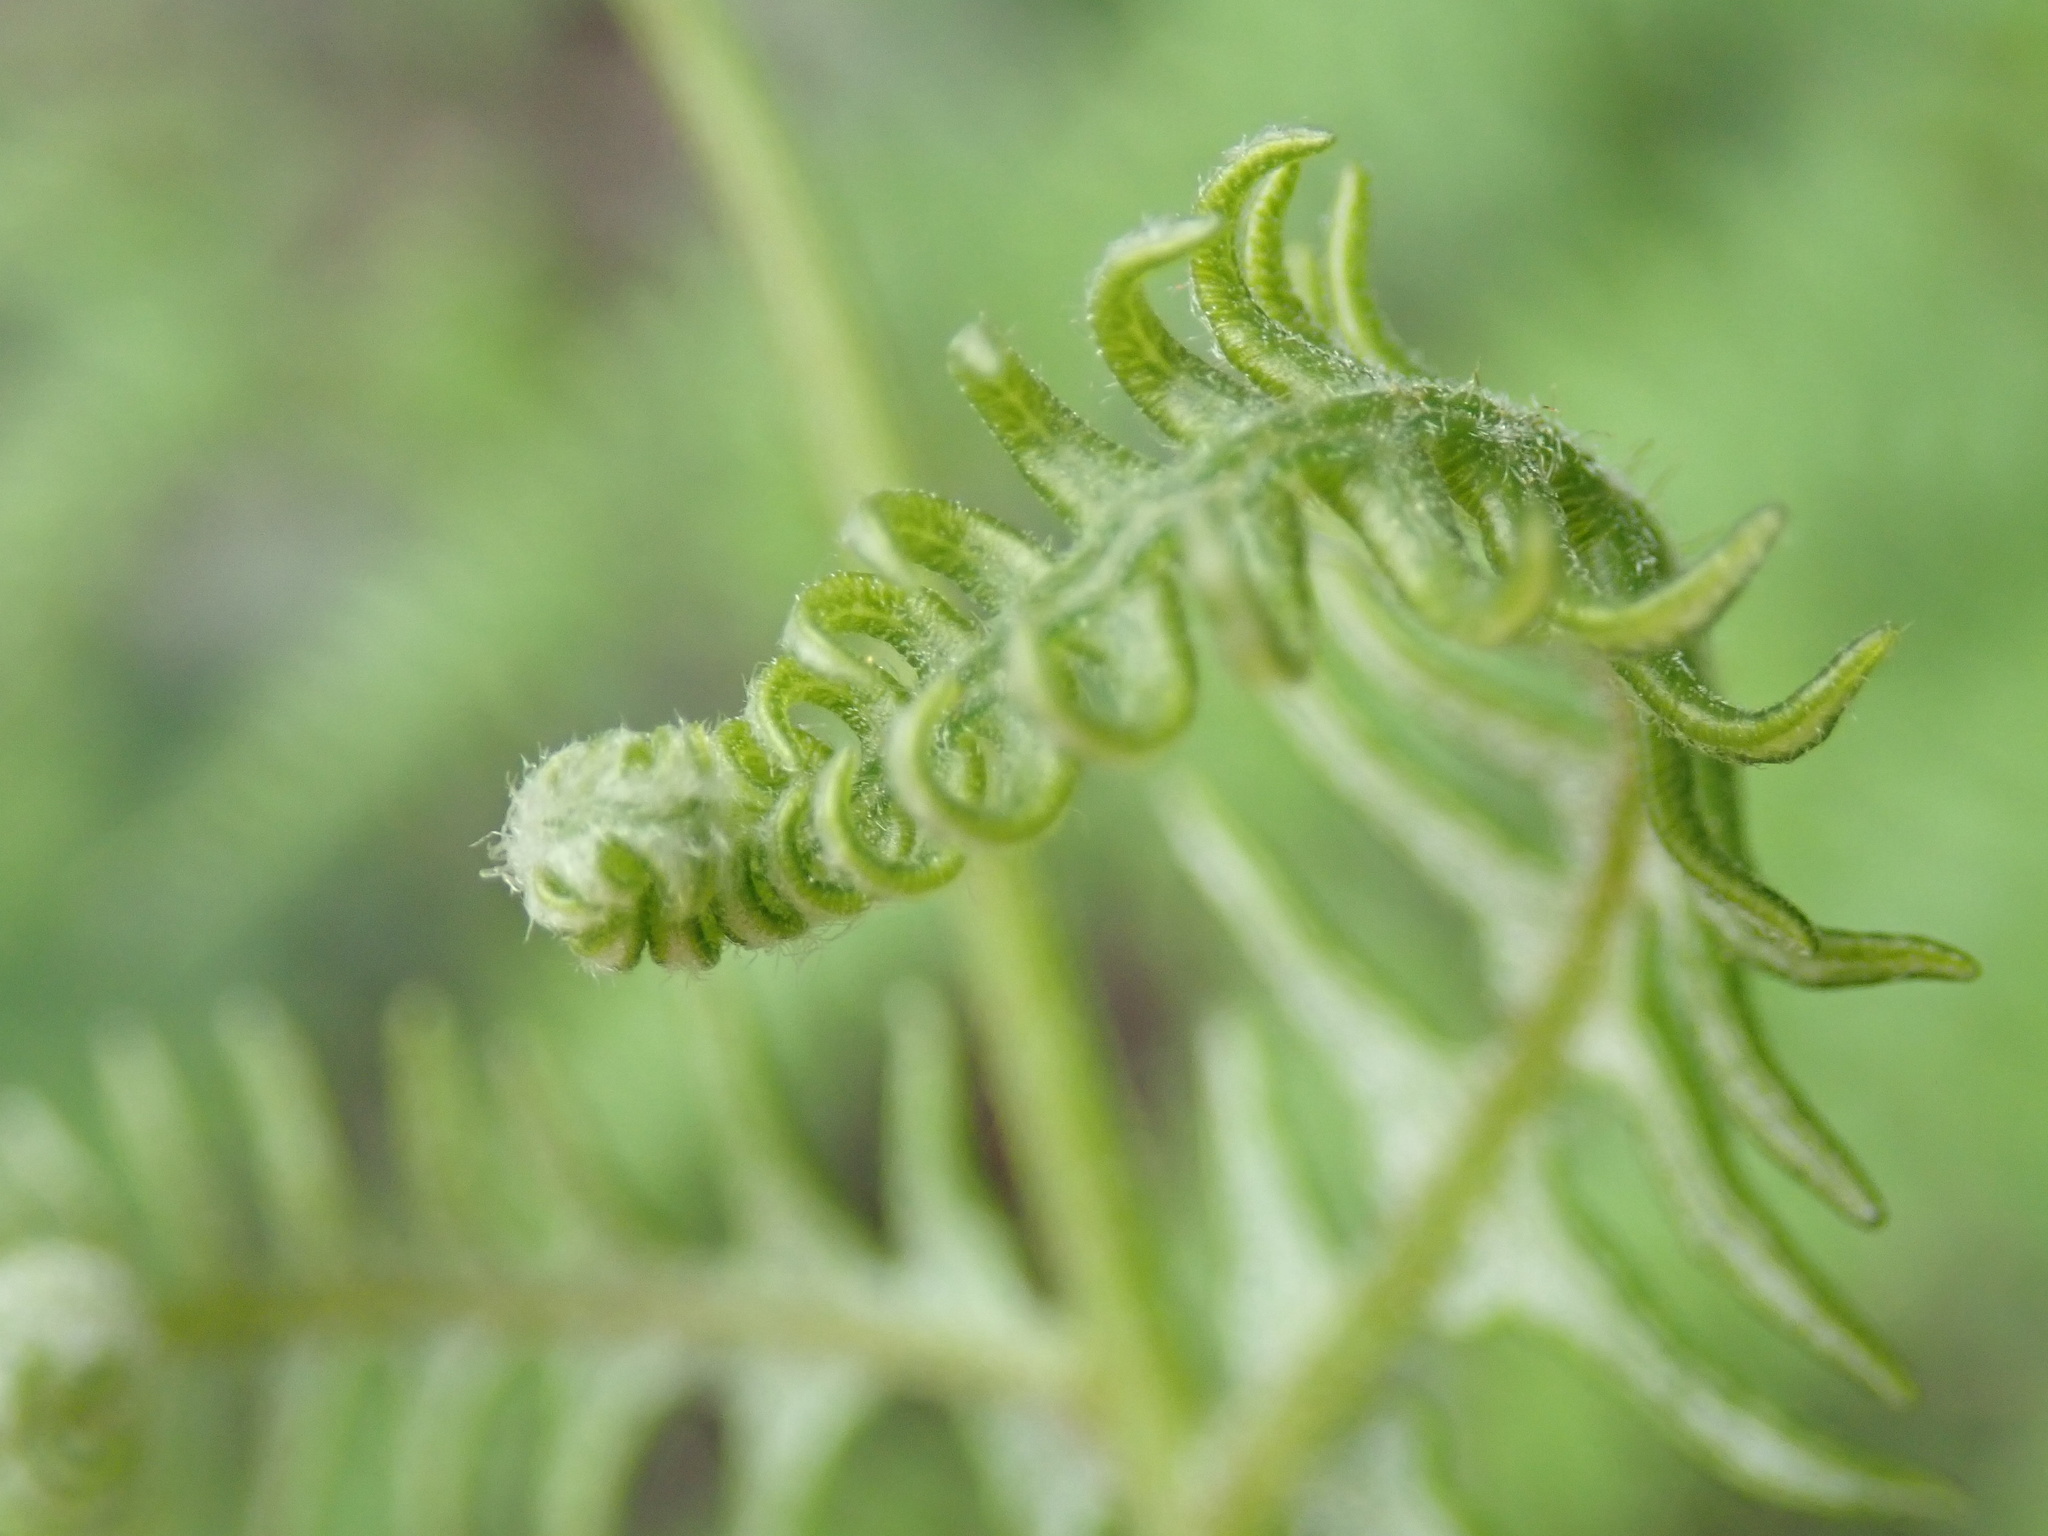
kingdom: Plantae
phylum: Tracheophyta
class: Polypodiopsida
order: Polypodiales
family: Dennstaedtiaceae
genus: Pteridium
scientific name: Pteridium aquilinum
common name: Bracken
